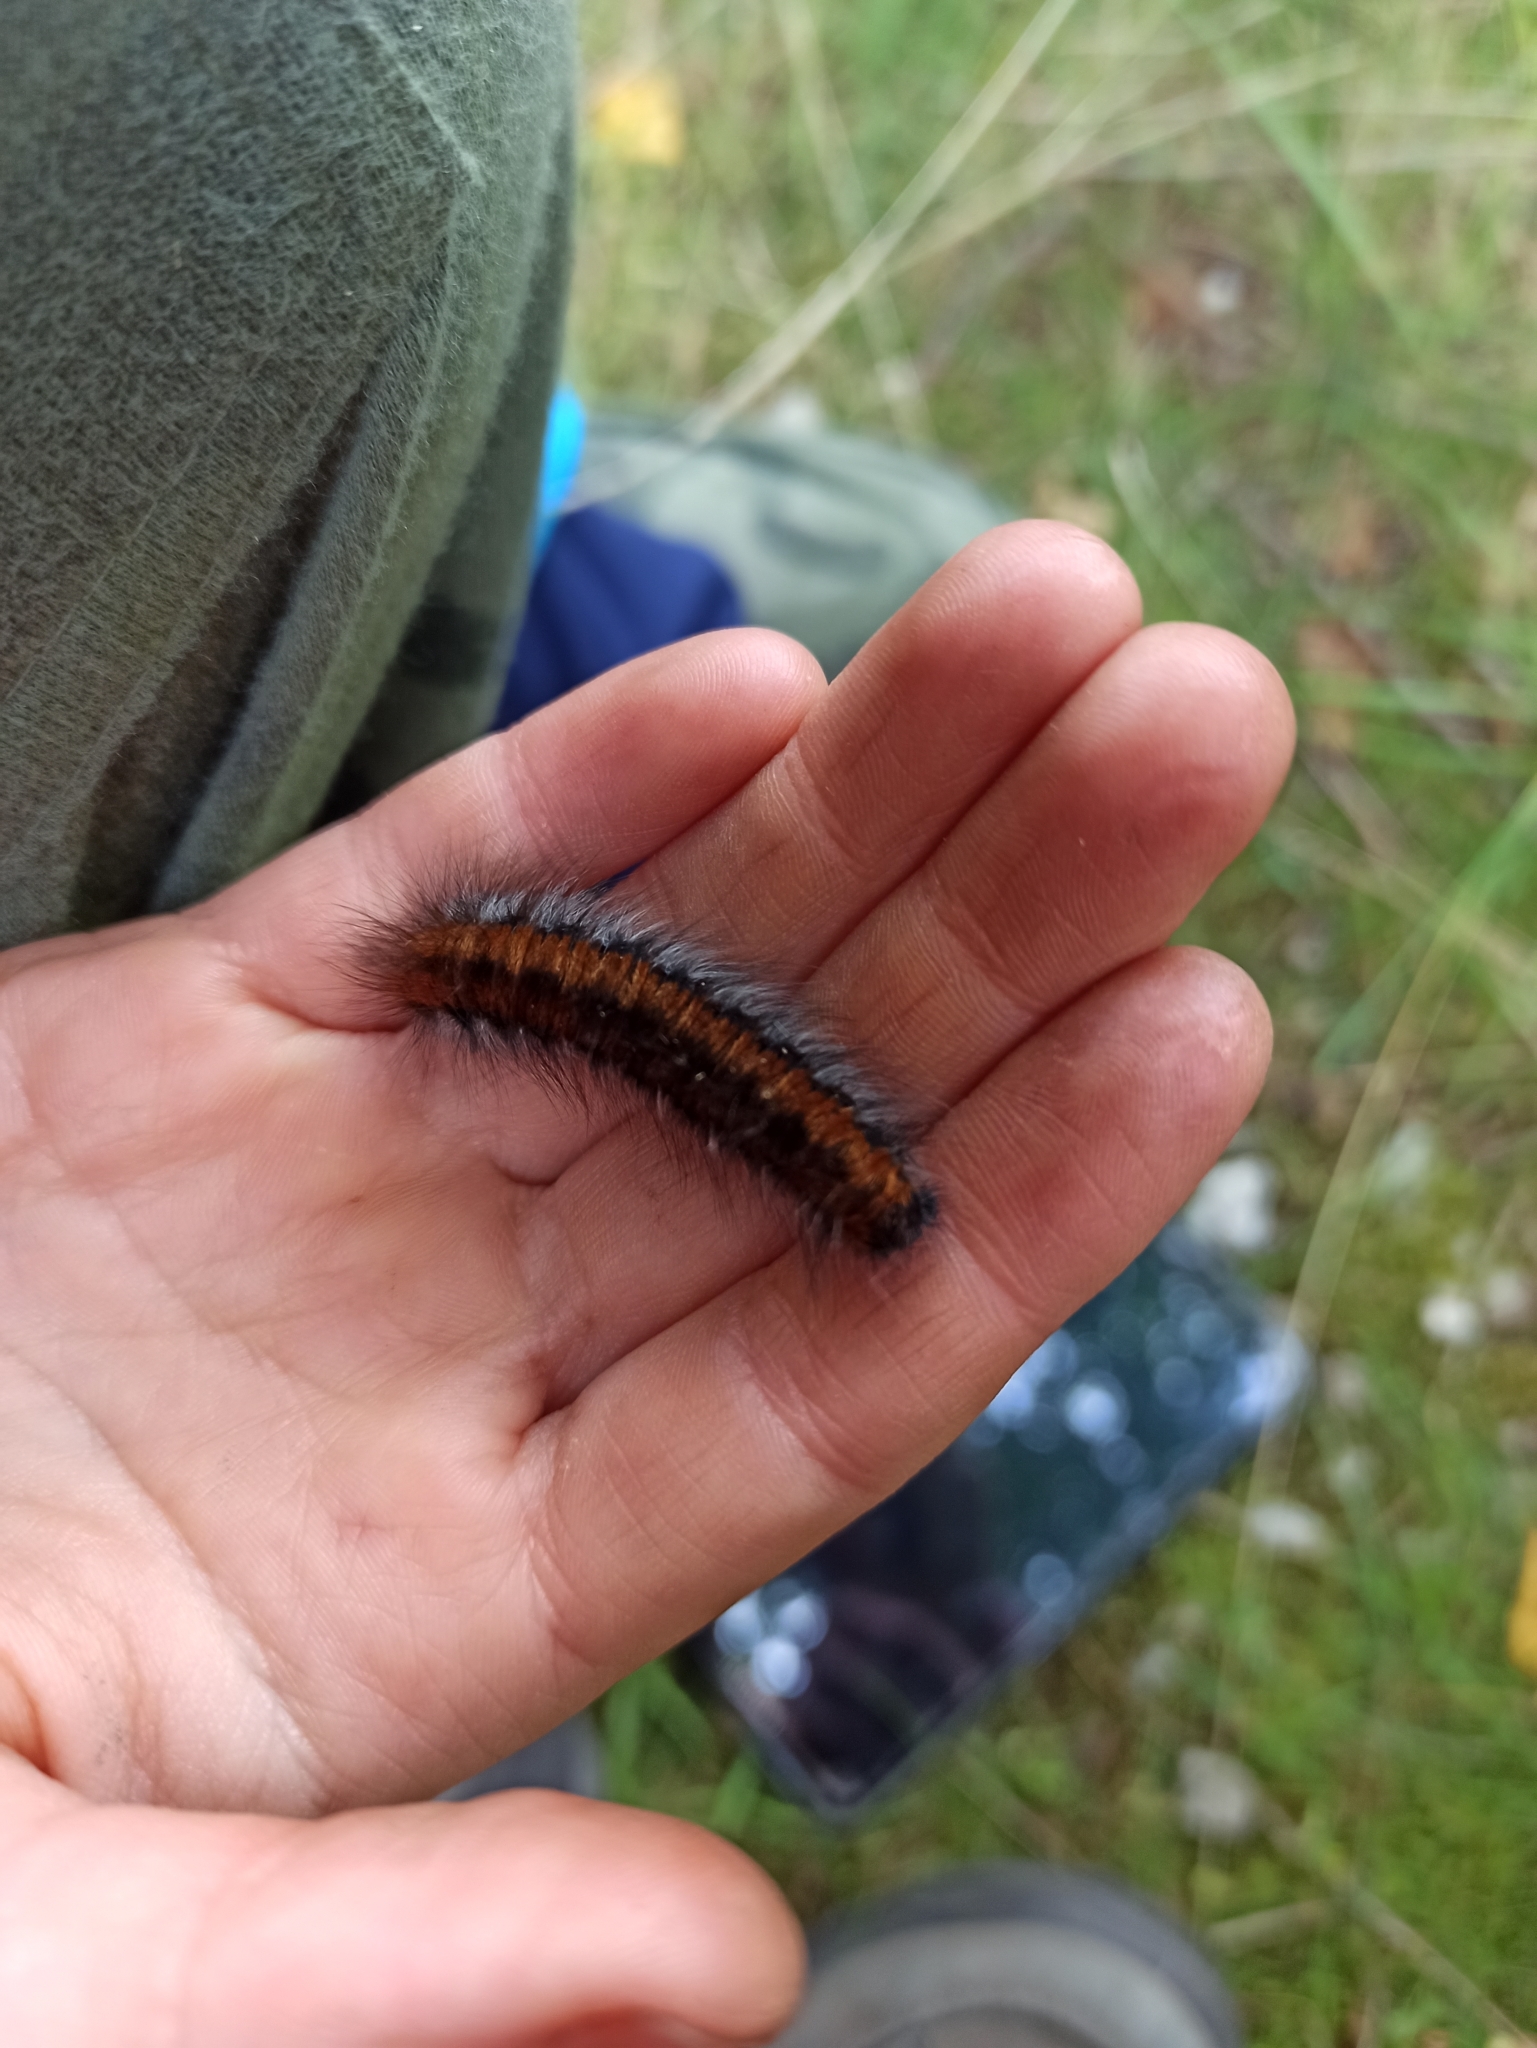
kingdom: Animalia
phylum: Arthropoda
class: Insecta
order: Lepidoptera
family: Lasiocampidae
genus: Macrothylacia
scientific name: Macrothylacia rubi
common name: Fox moth
